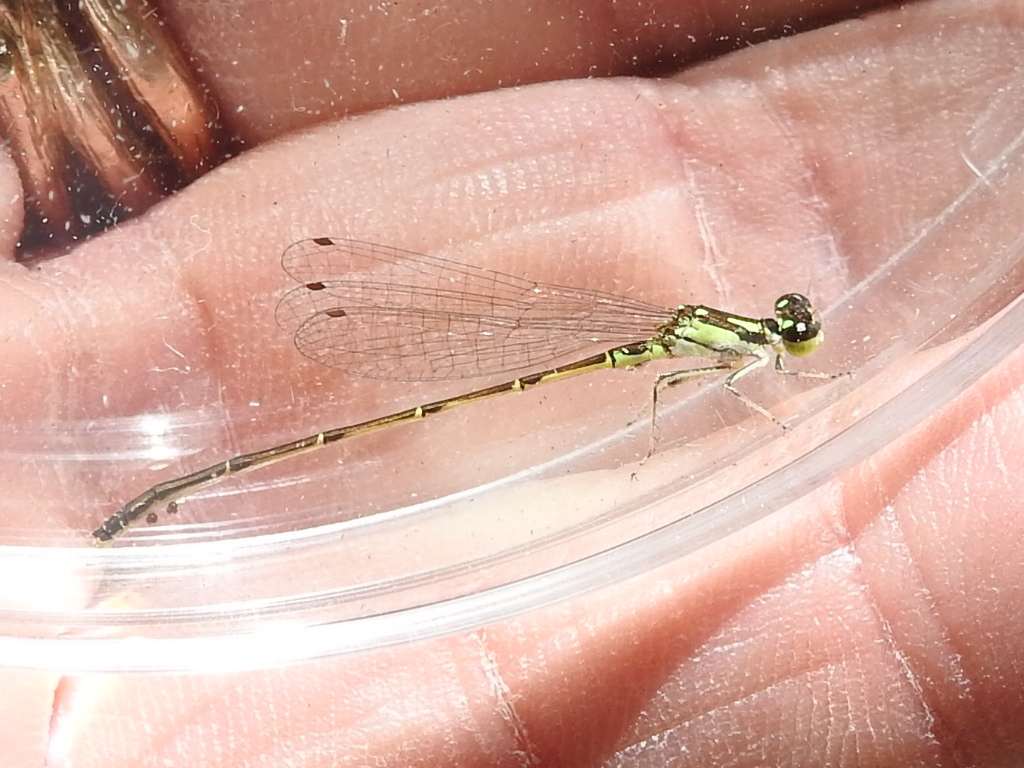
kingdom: Animalia
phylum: Arthropoda
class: Insecta
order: Odonata
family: Coenagrionidae
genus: Ischnura
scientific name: Ischnura posita
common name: Fragile forktail
